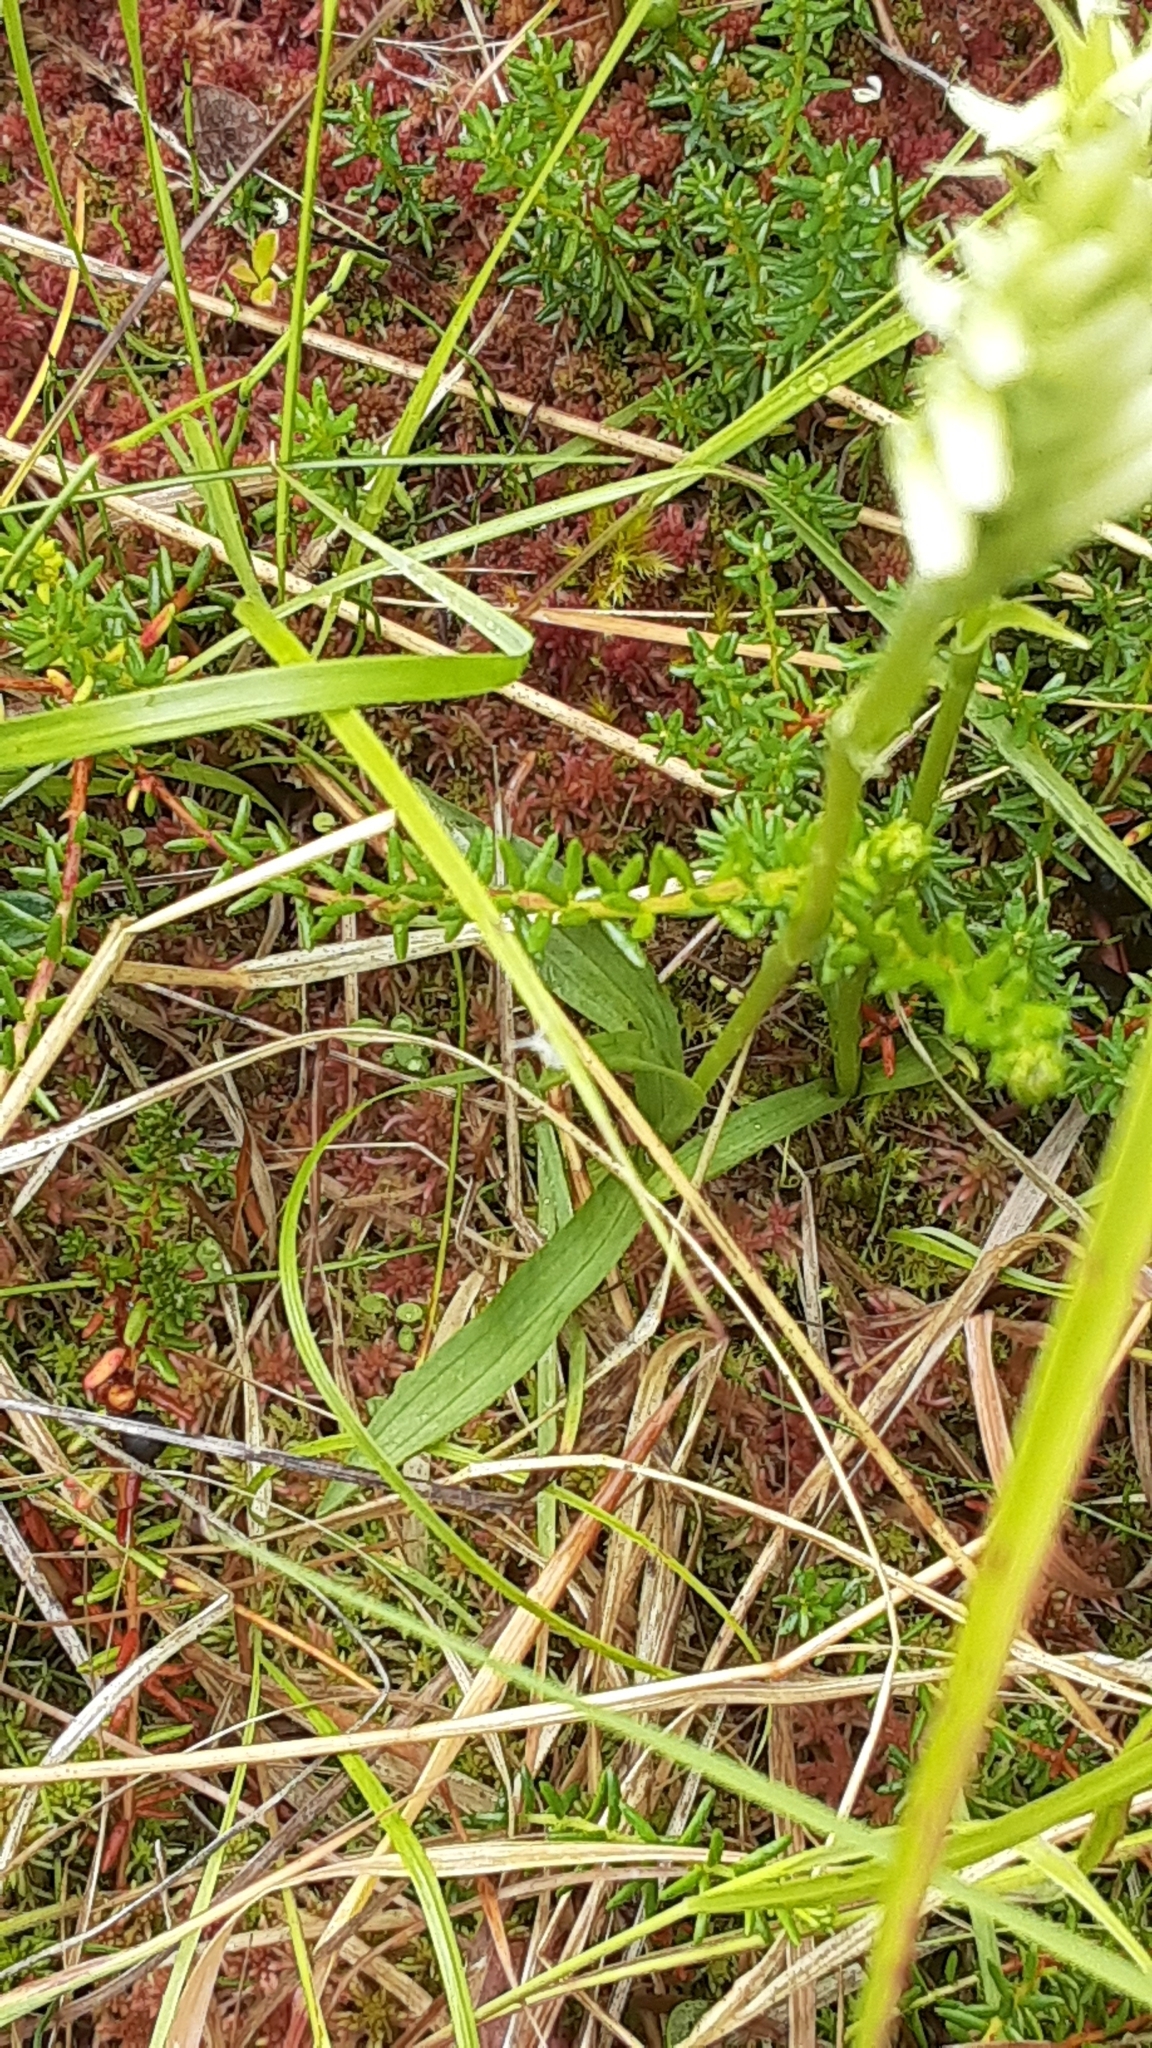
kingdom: Plantae
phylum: Tracheophyta
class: Liliopsida
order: Asparagales
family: Orchidaceae
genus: Spiranthes
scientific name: Spiranthes romanzoffiana
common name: Irish lady's-tresses
